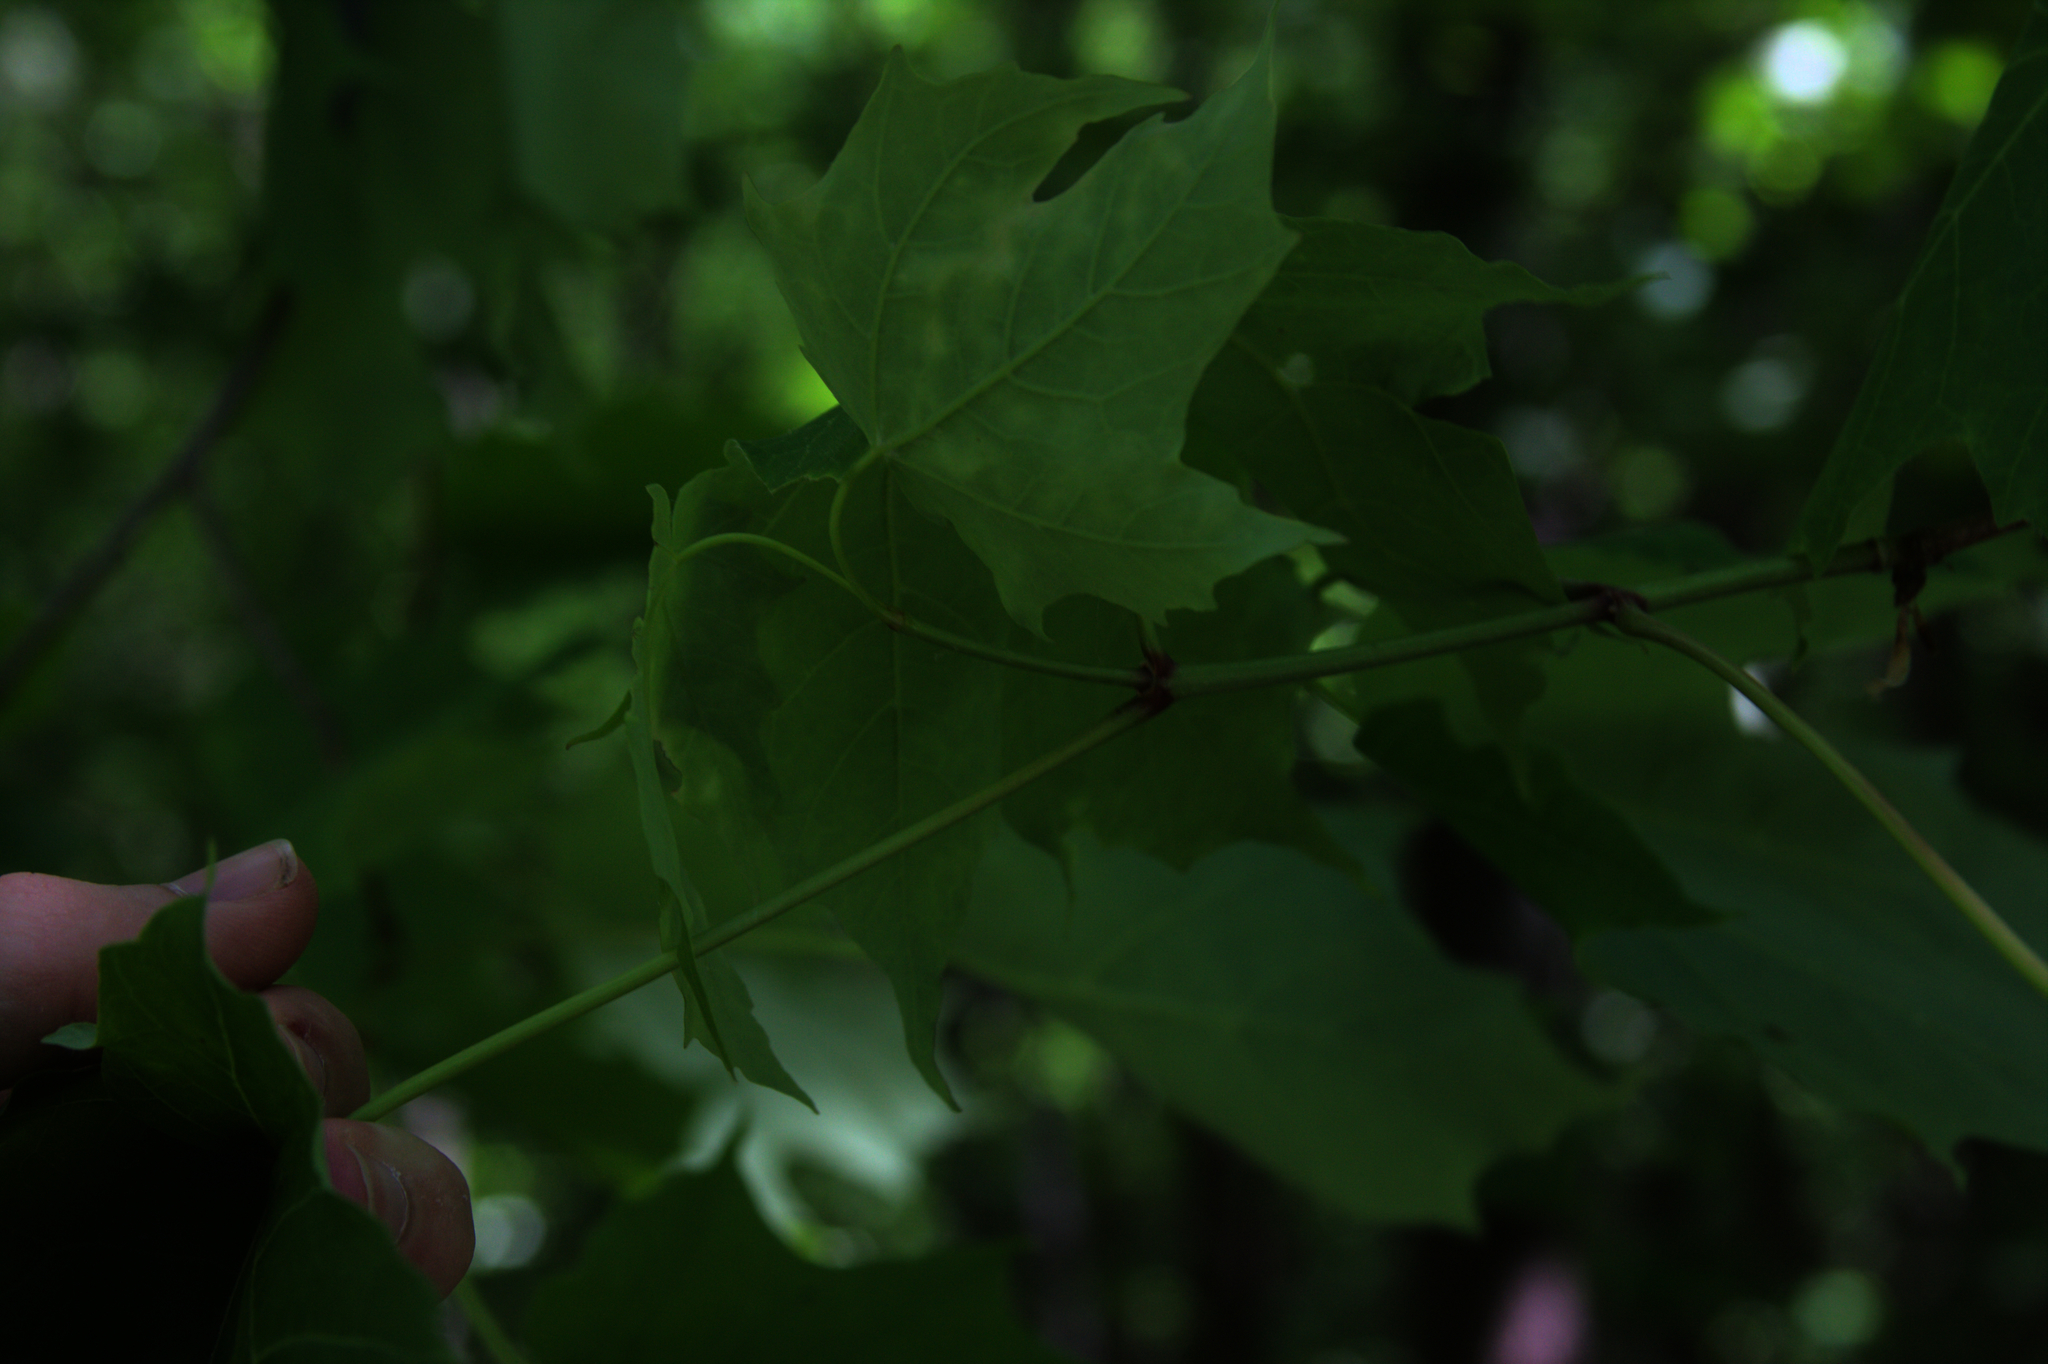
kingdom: Plantae
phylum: Tracheophyta
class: Magnoliopsida
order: Sapindales
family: Sapindaceae
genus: Acer
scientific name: Acer saccharum
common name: Sugar maple
